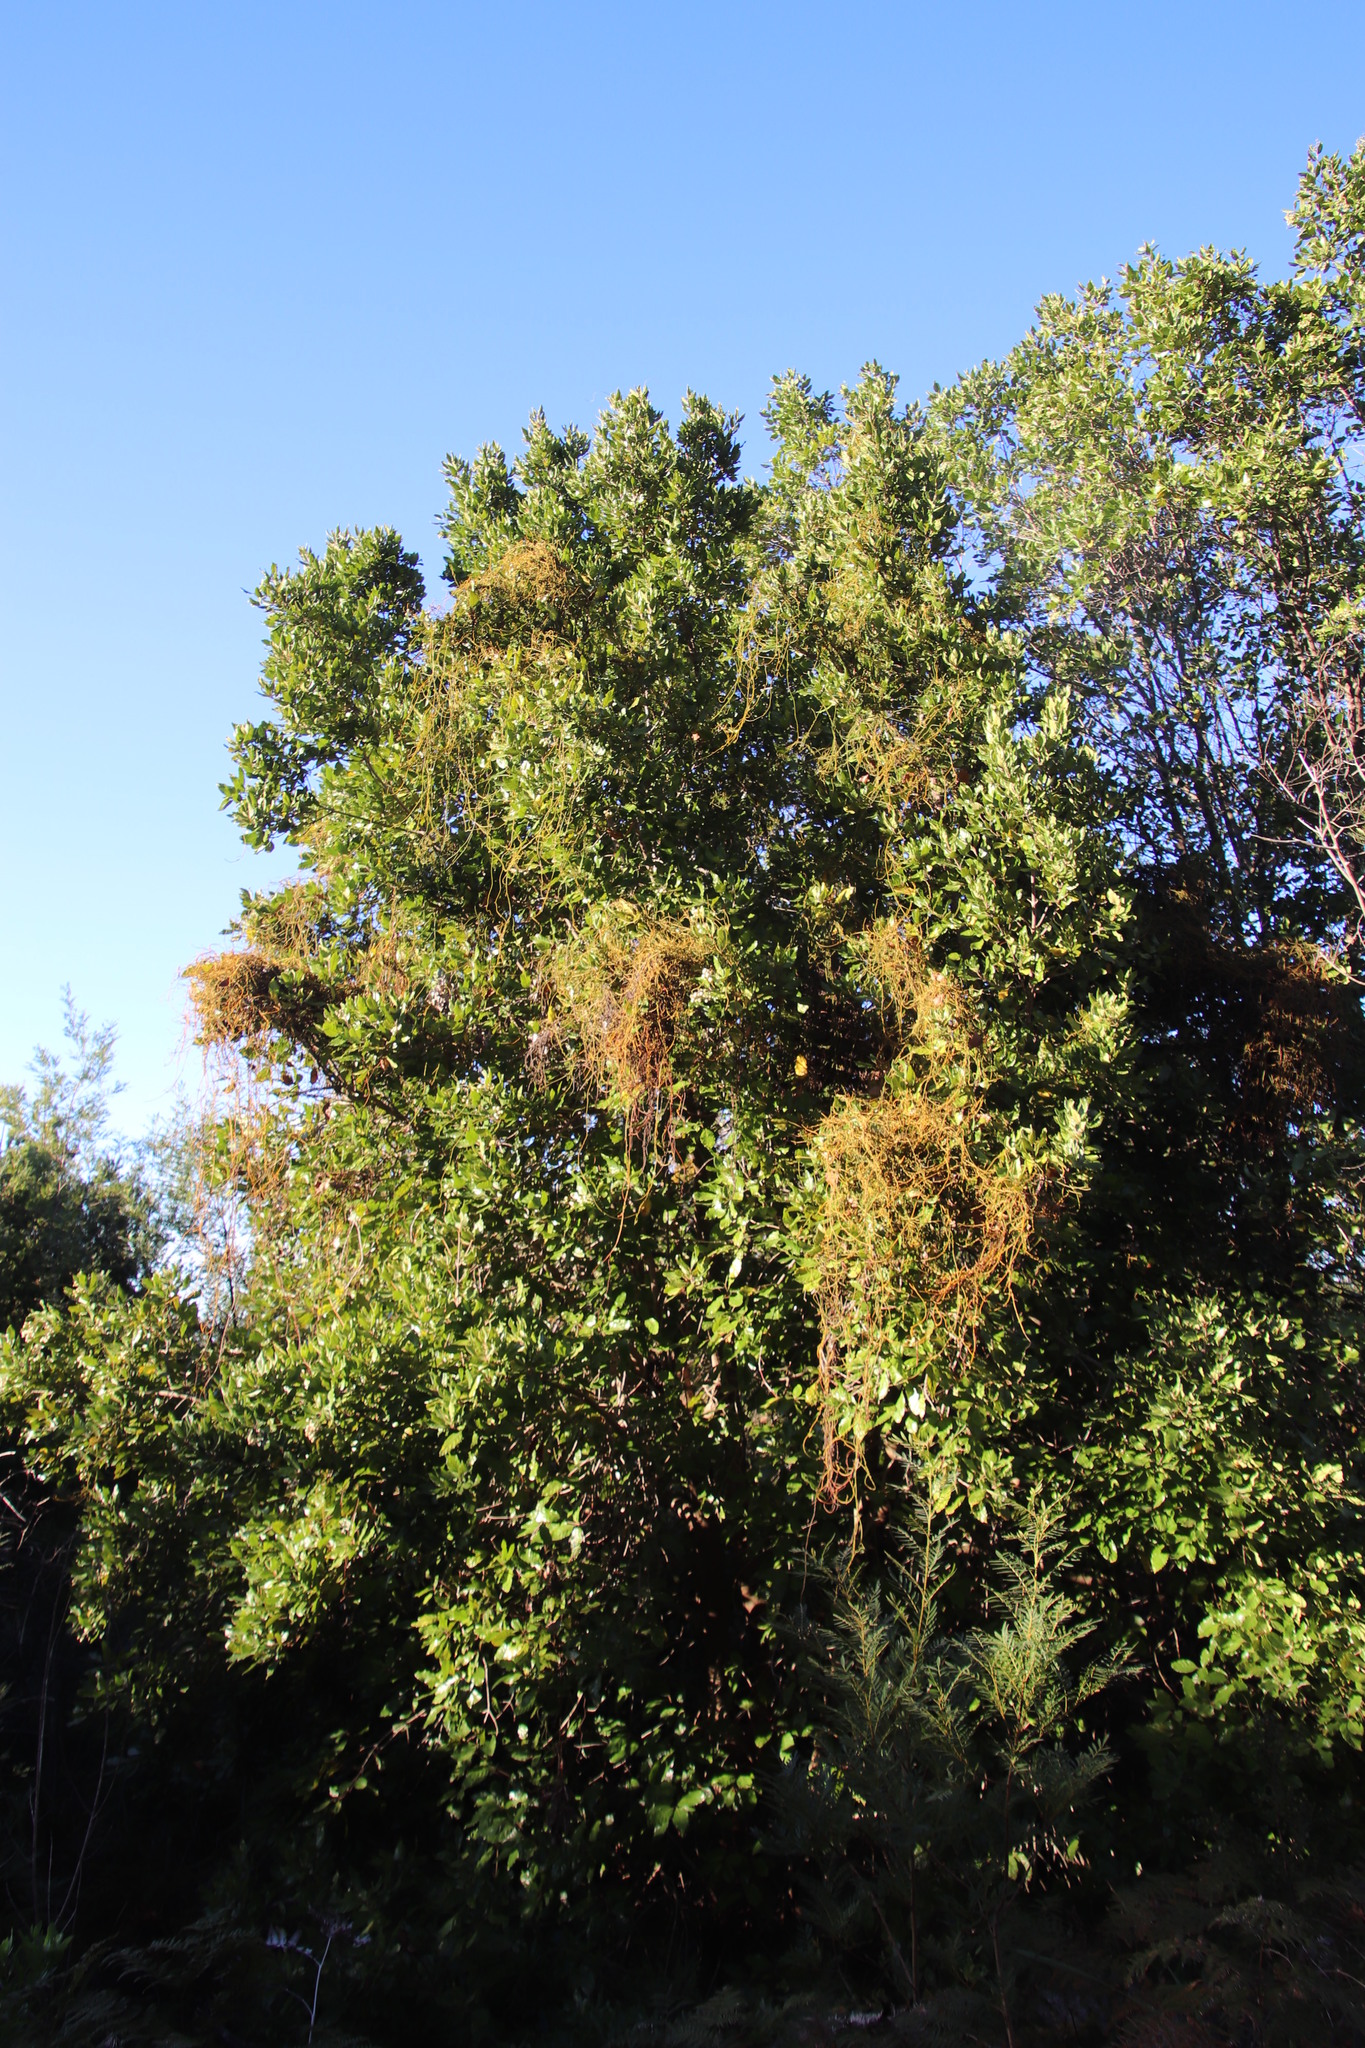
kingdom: Plantae
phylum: Tracheophyta
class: Magnoliopsida
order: Laurales
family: Lauraceae
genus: Cassytha
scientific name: Cassytha ciliolata
